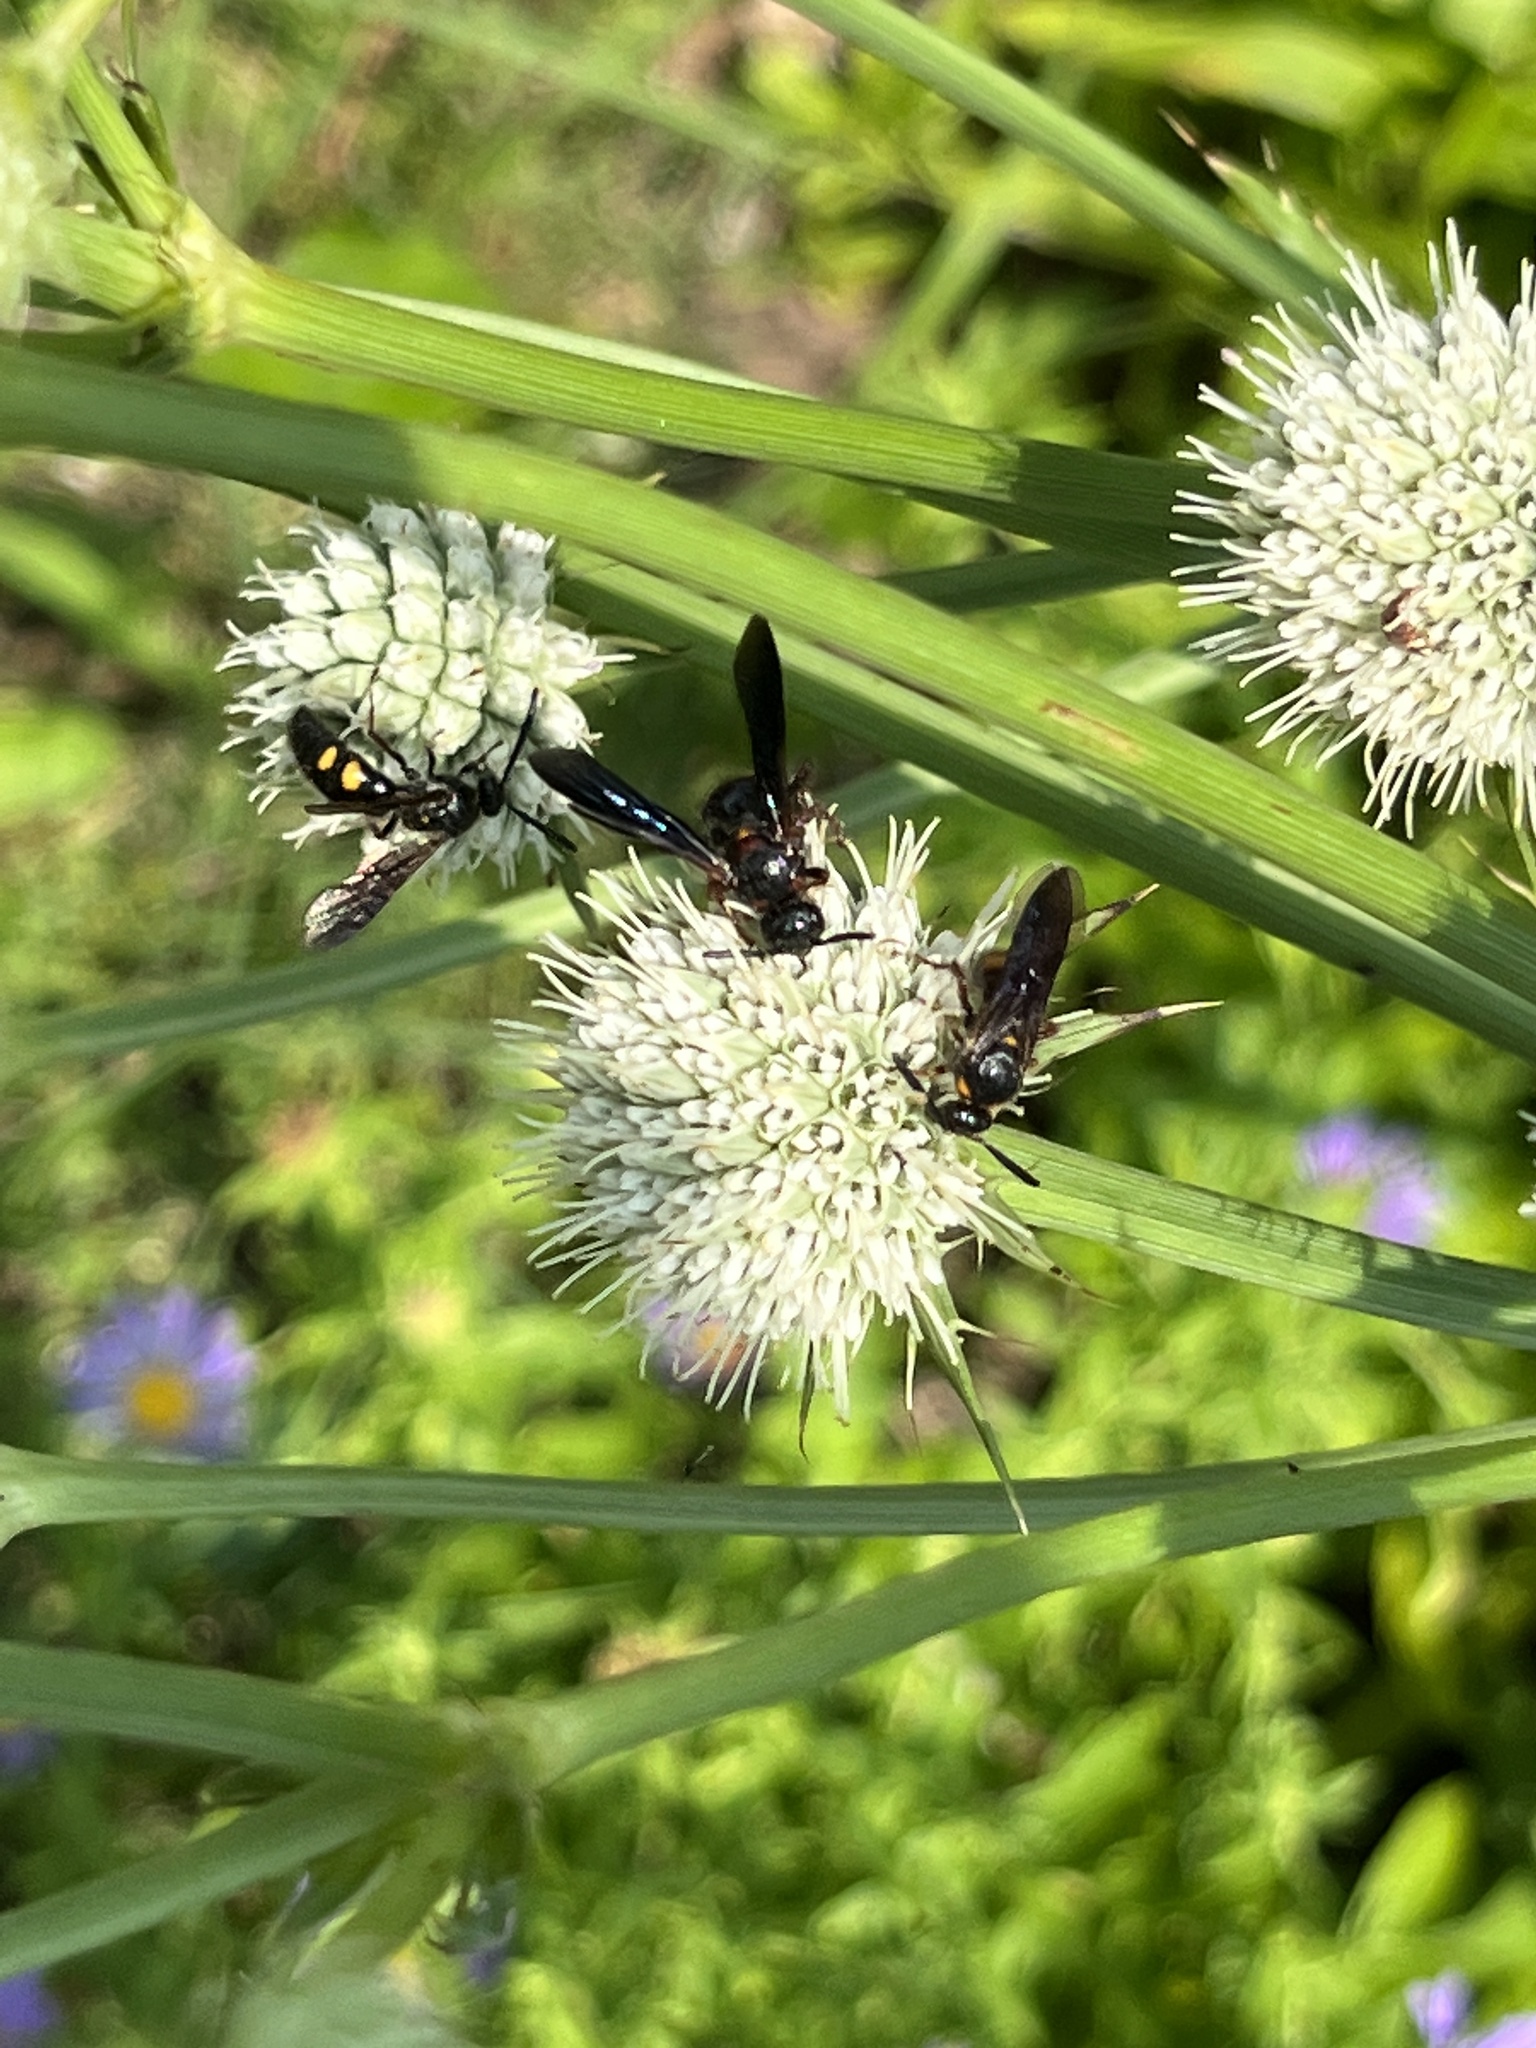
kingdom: Animalia
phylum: Arthropoda
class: Insecta
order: Hymenoptera
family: Scoliidae
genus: Scolia
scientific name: Scolia nobilitata
